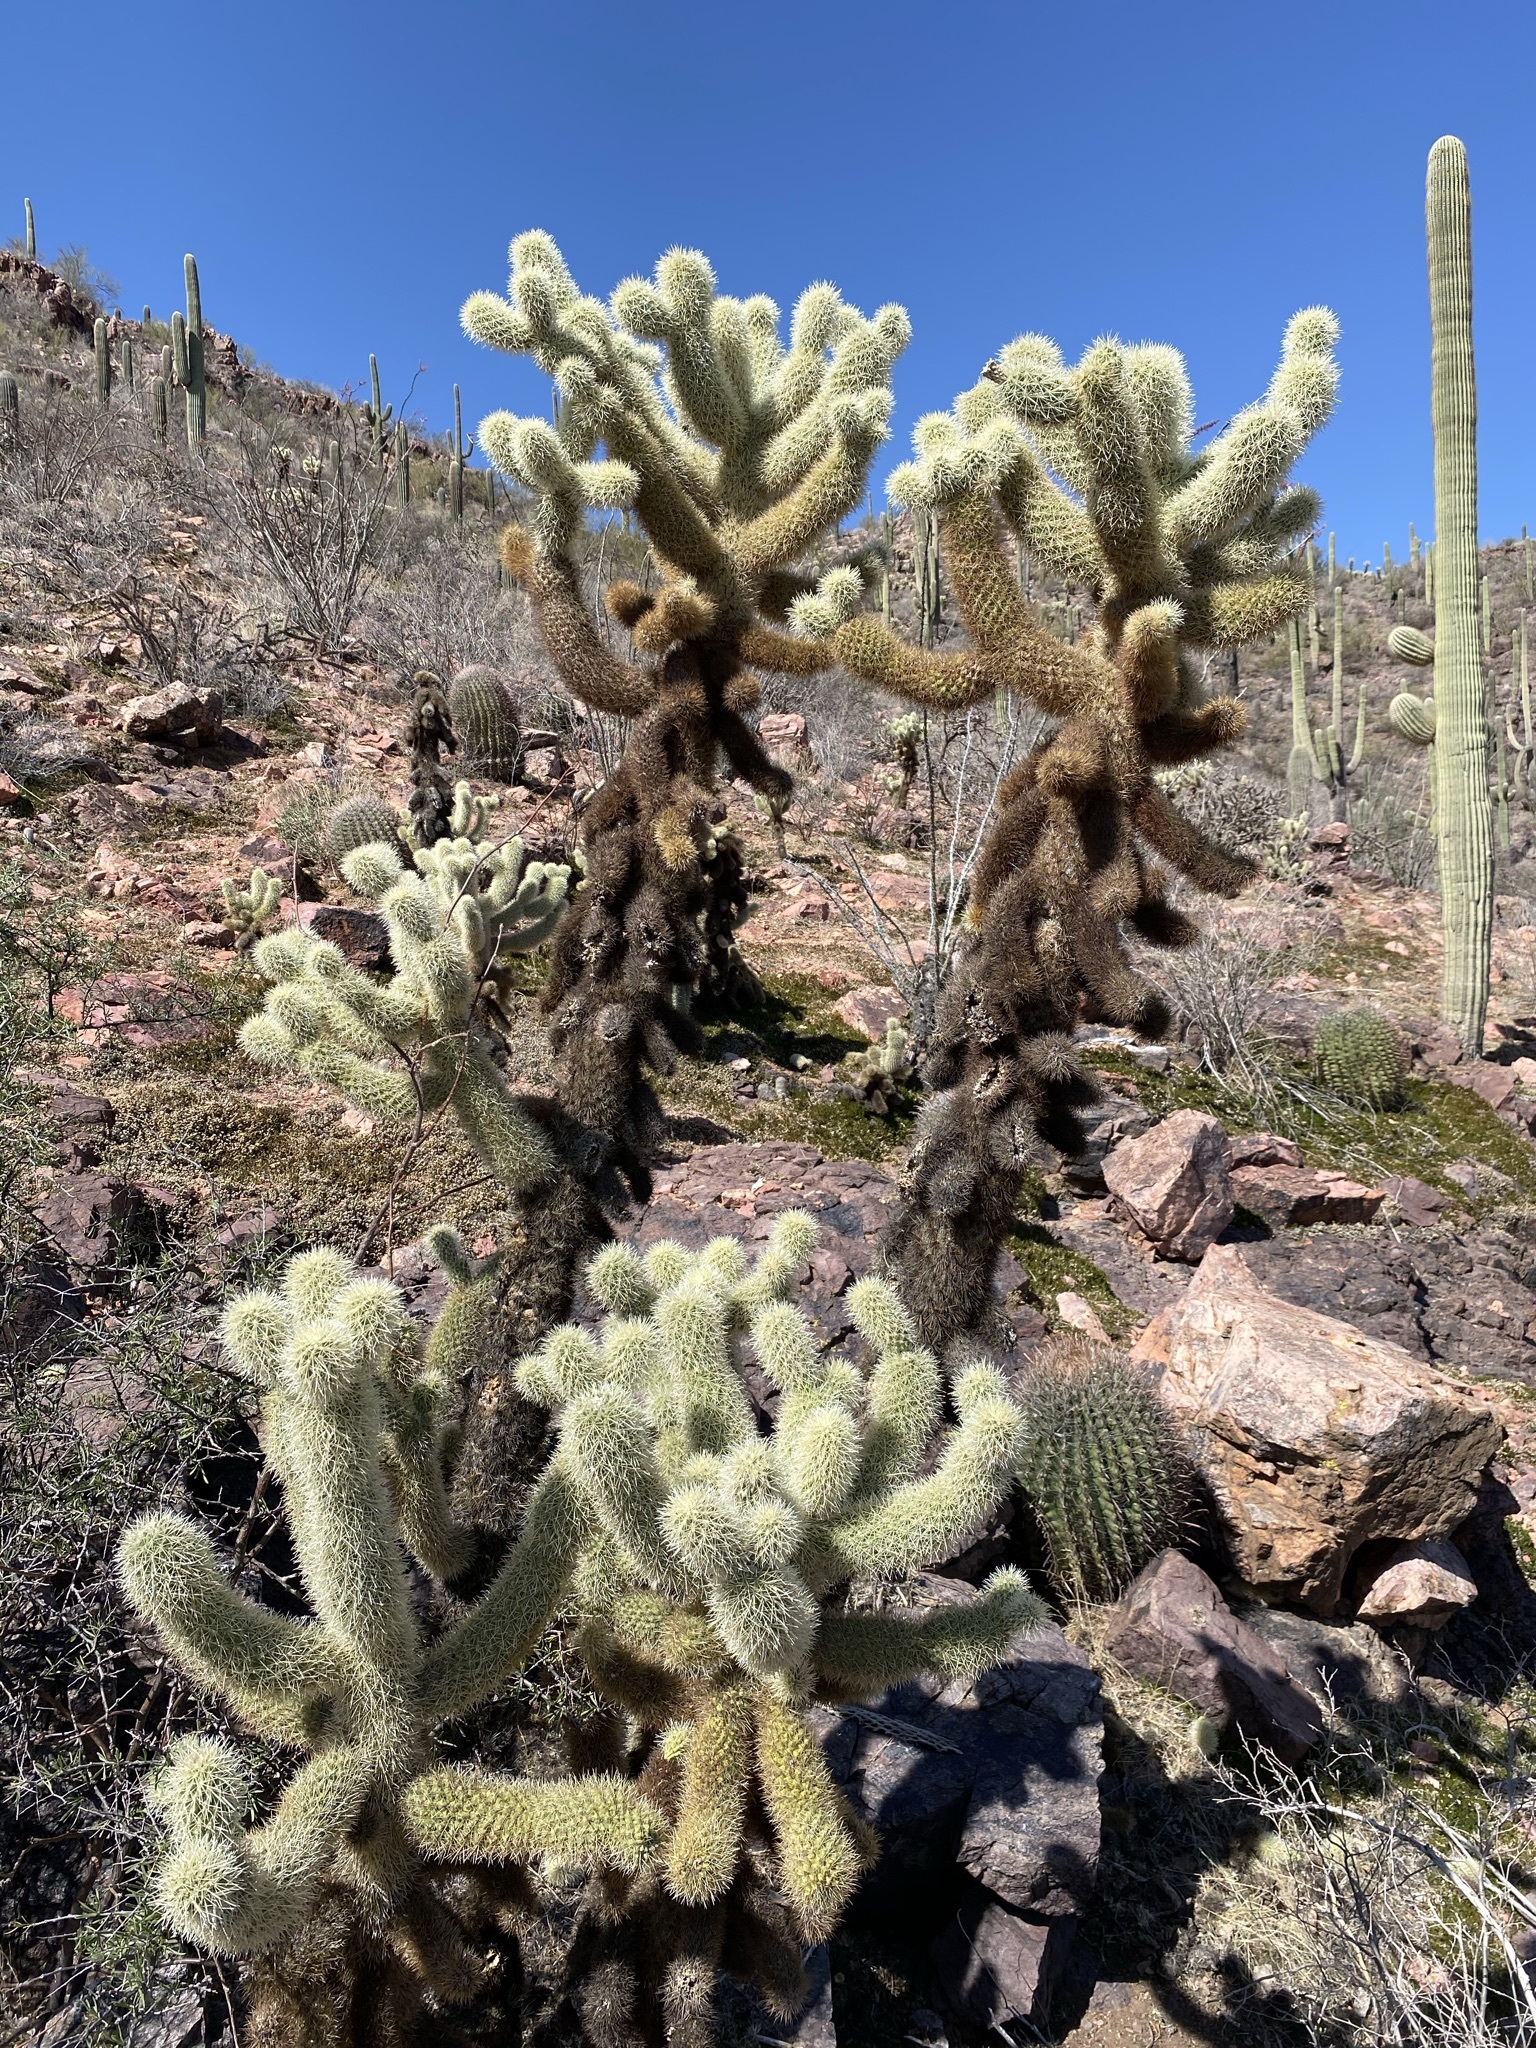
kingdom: Plantae
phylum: Tracheophyta
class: Magnoliopsida
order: Caryophyllales
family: Cactaceae
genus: Cylindropuntia
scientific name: Cylindropuntia fosbergii
